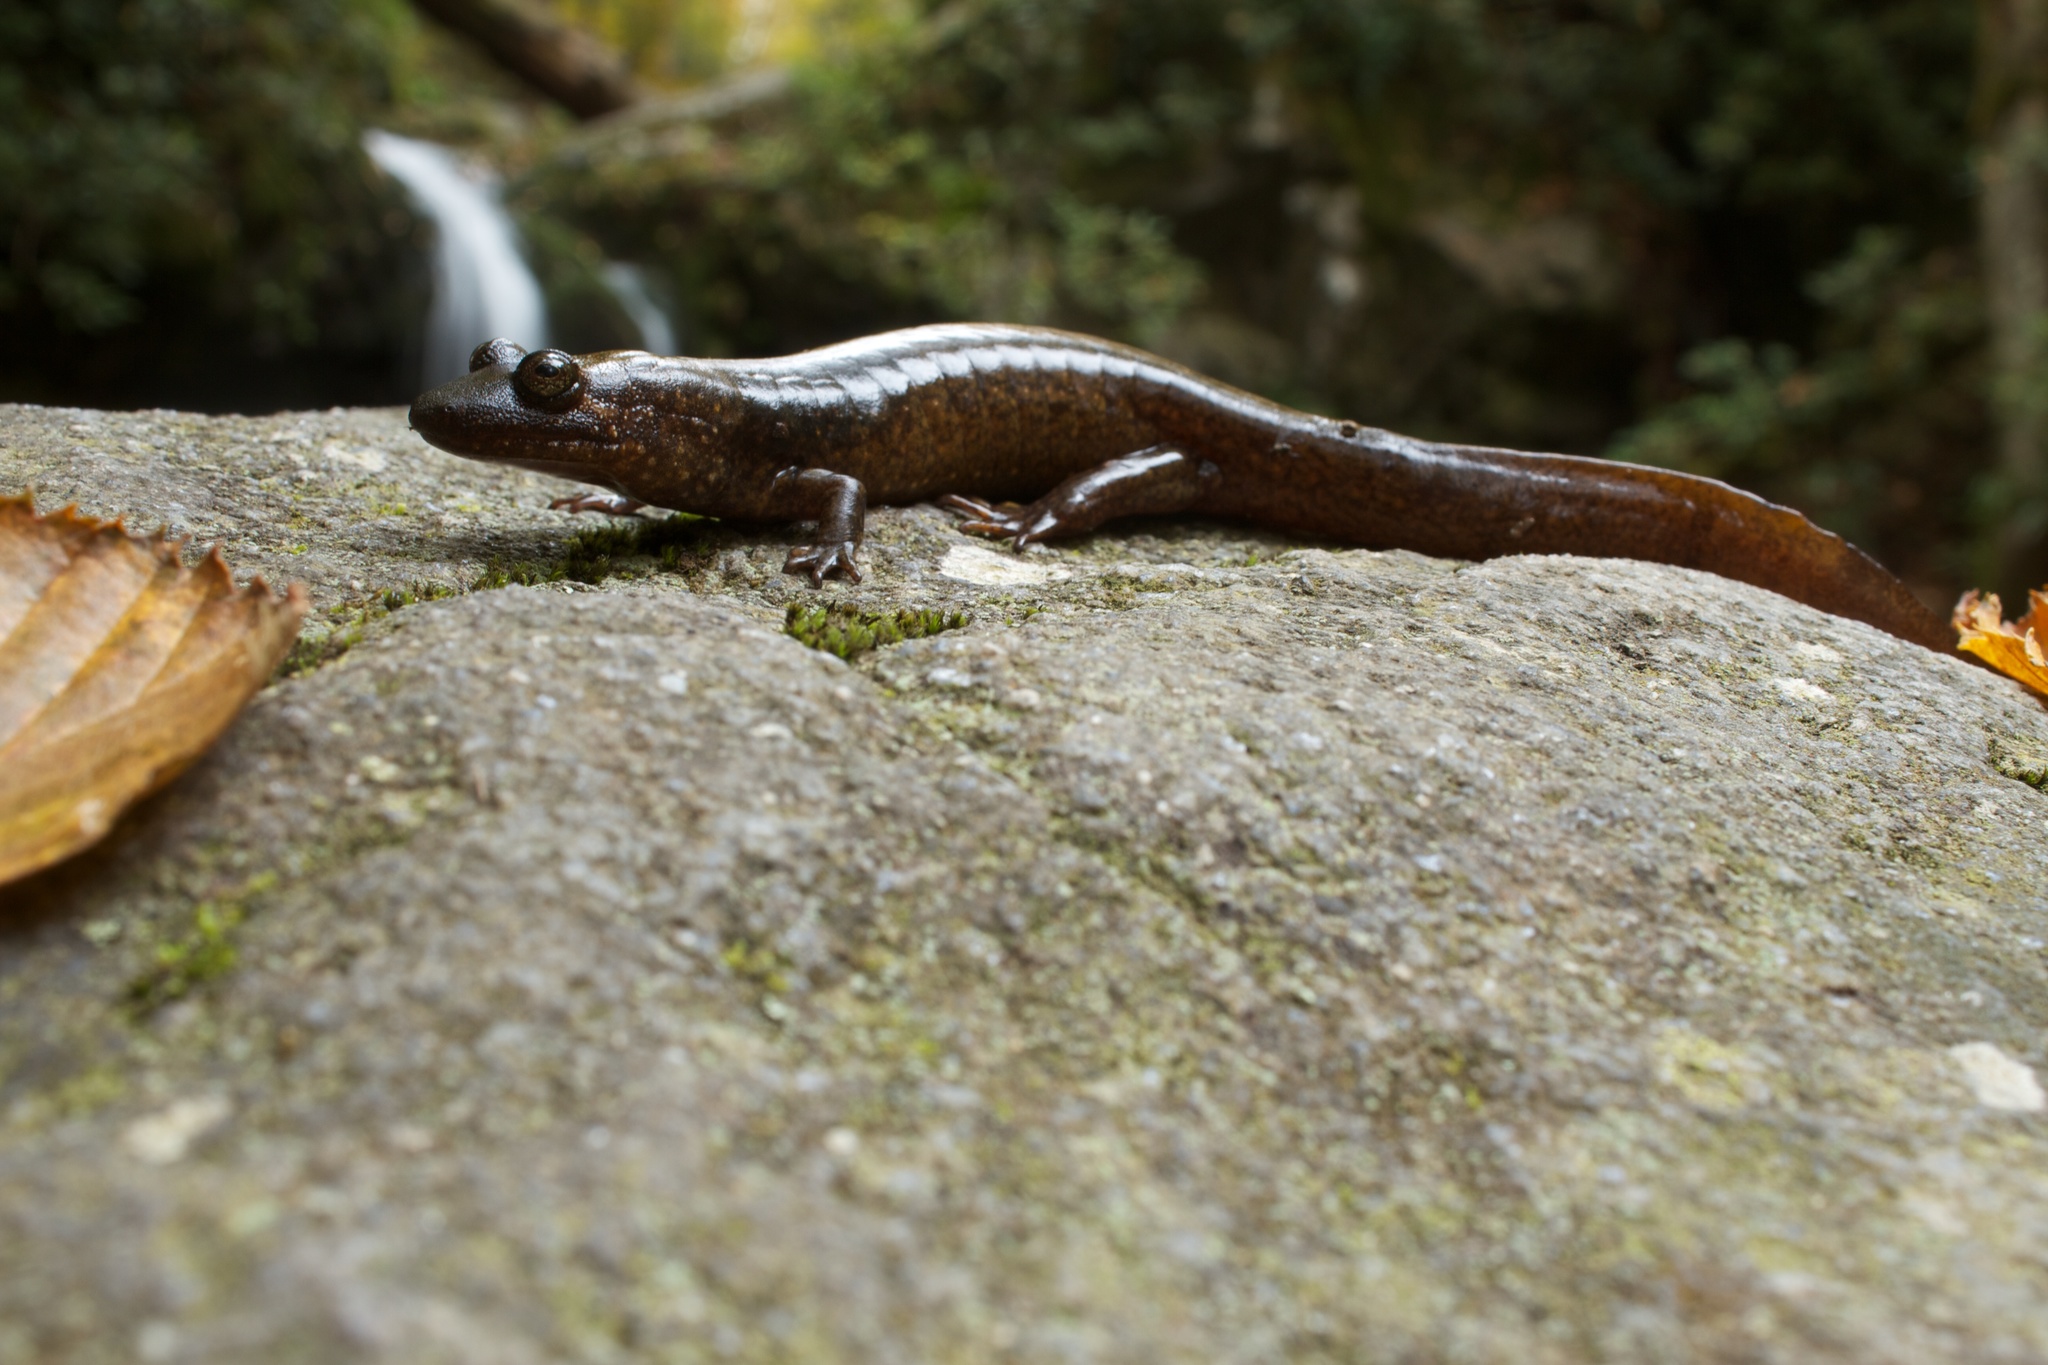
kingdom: Animalia
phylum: Chordata
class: Amphibia
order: Caudata
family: Plethodontidae
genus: Desmognathus
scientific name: Desmognathus
